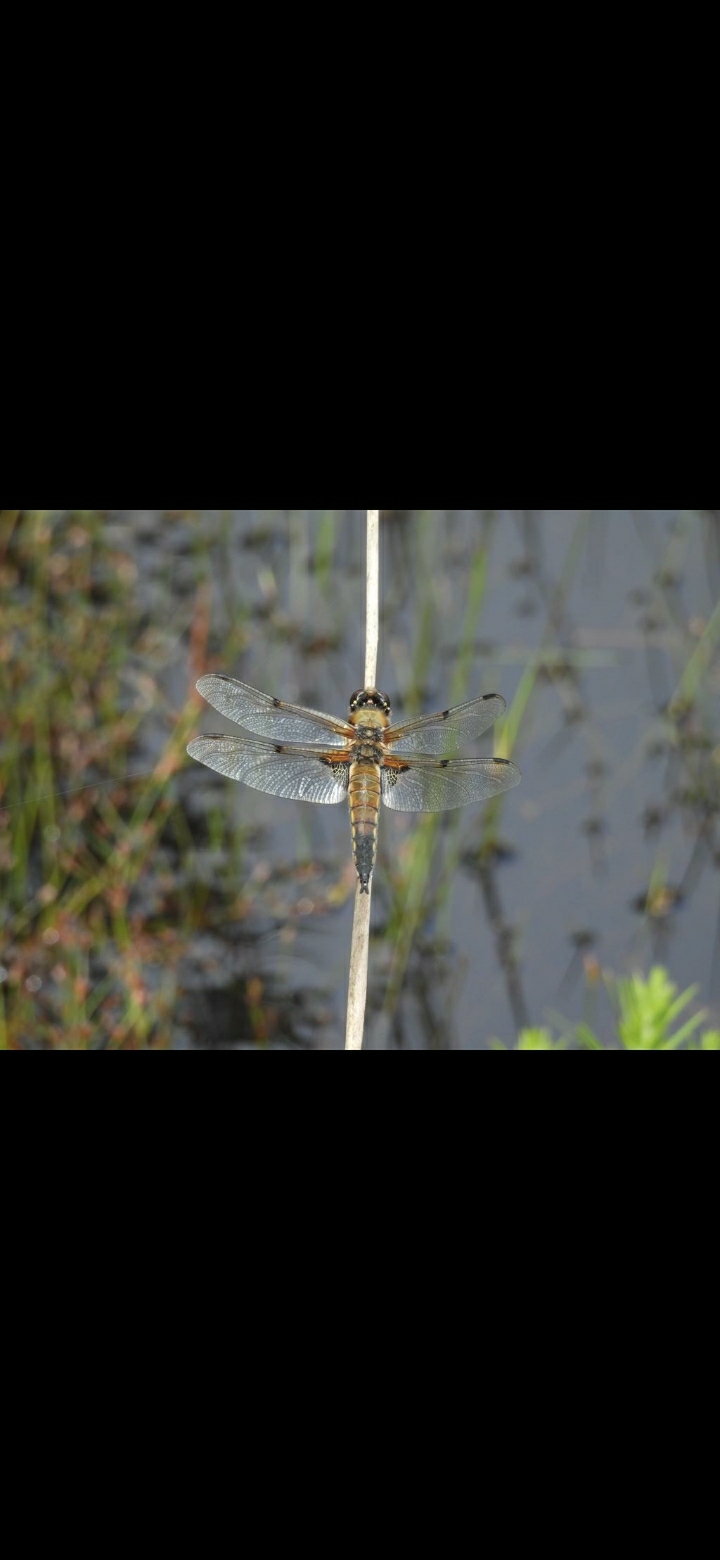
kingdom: Animalia
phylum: Arthropoda
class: Insecta
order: Odonata
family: Libellulidae
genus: Libellula
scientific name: Libellula quadrimaculata
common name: Four-spotted chaser
